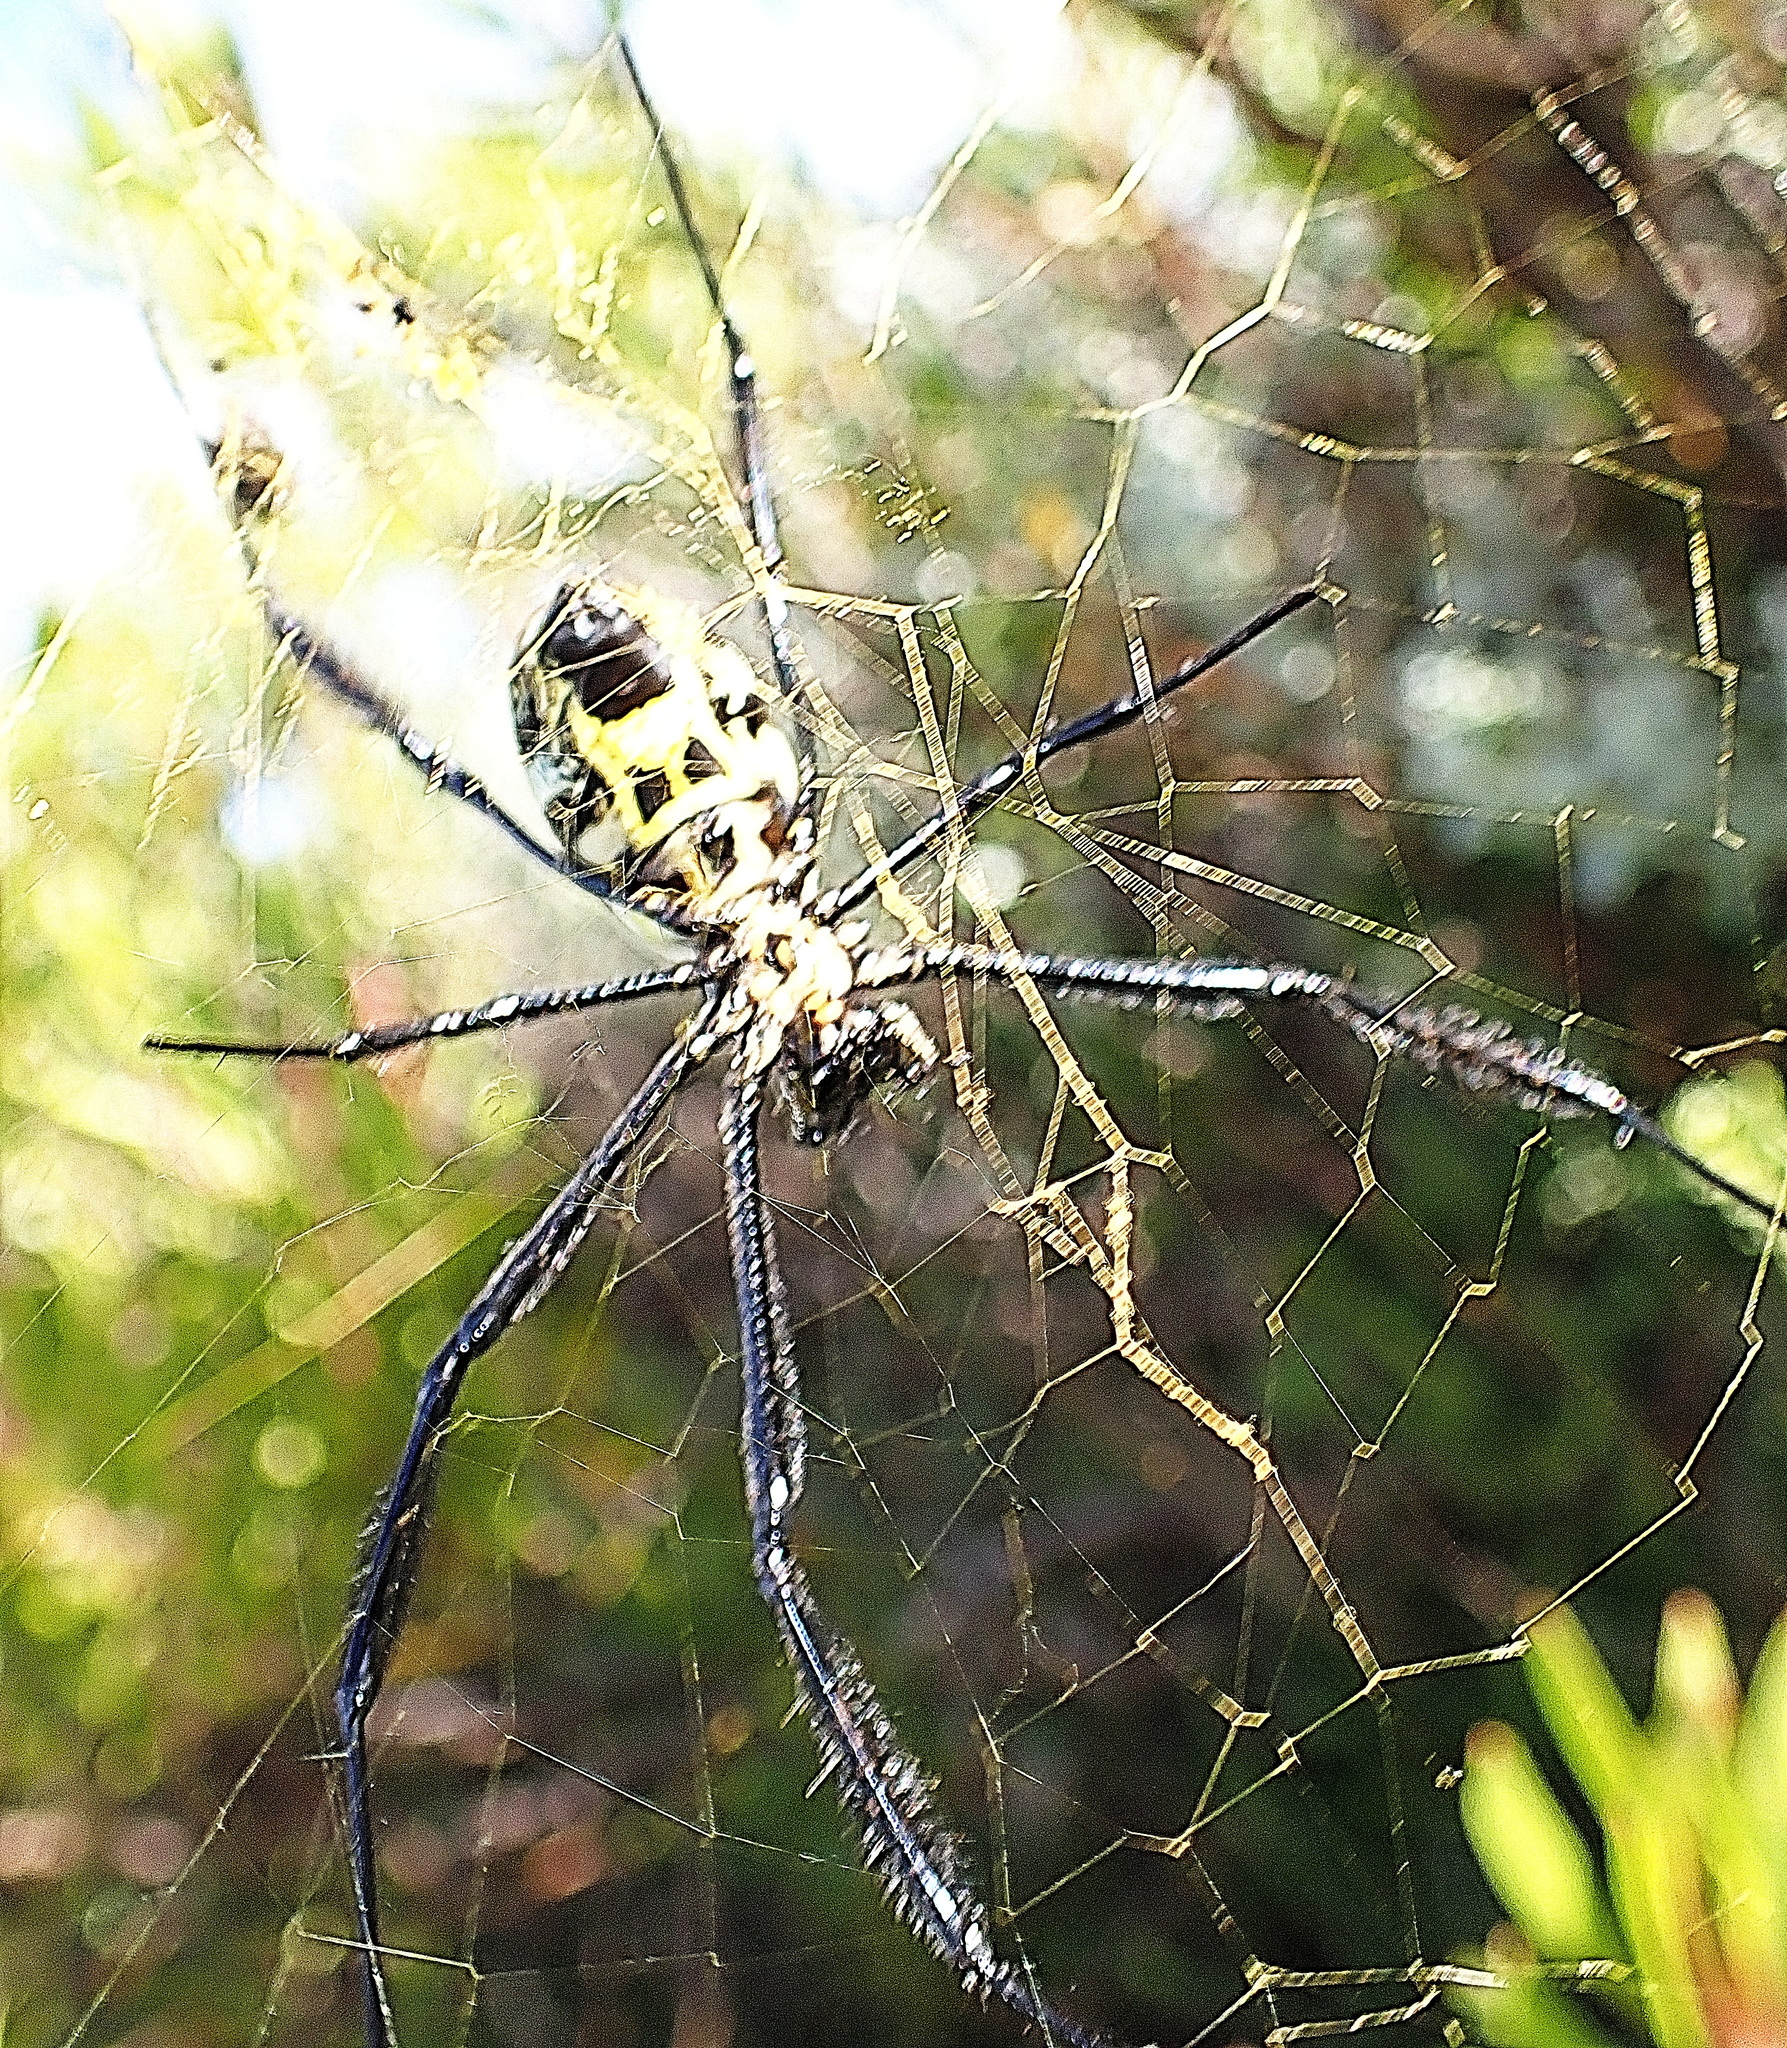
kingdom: Animalia
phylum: Arthropoda
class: Arachnida
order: Araneae
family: Araneidae
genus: Trichonephila
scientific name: Trichonephila fenestrata
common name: Hairy golden orb weaver
